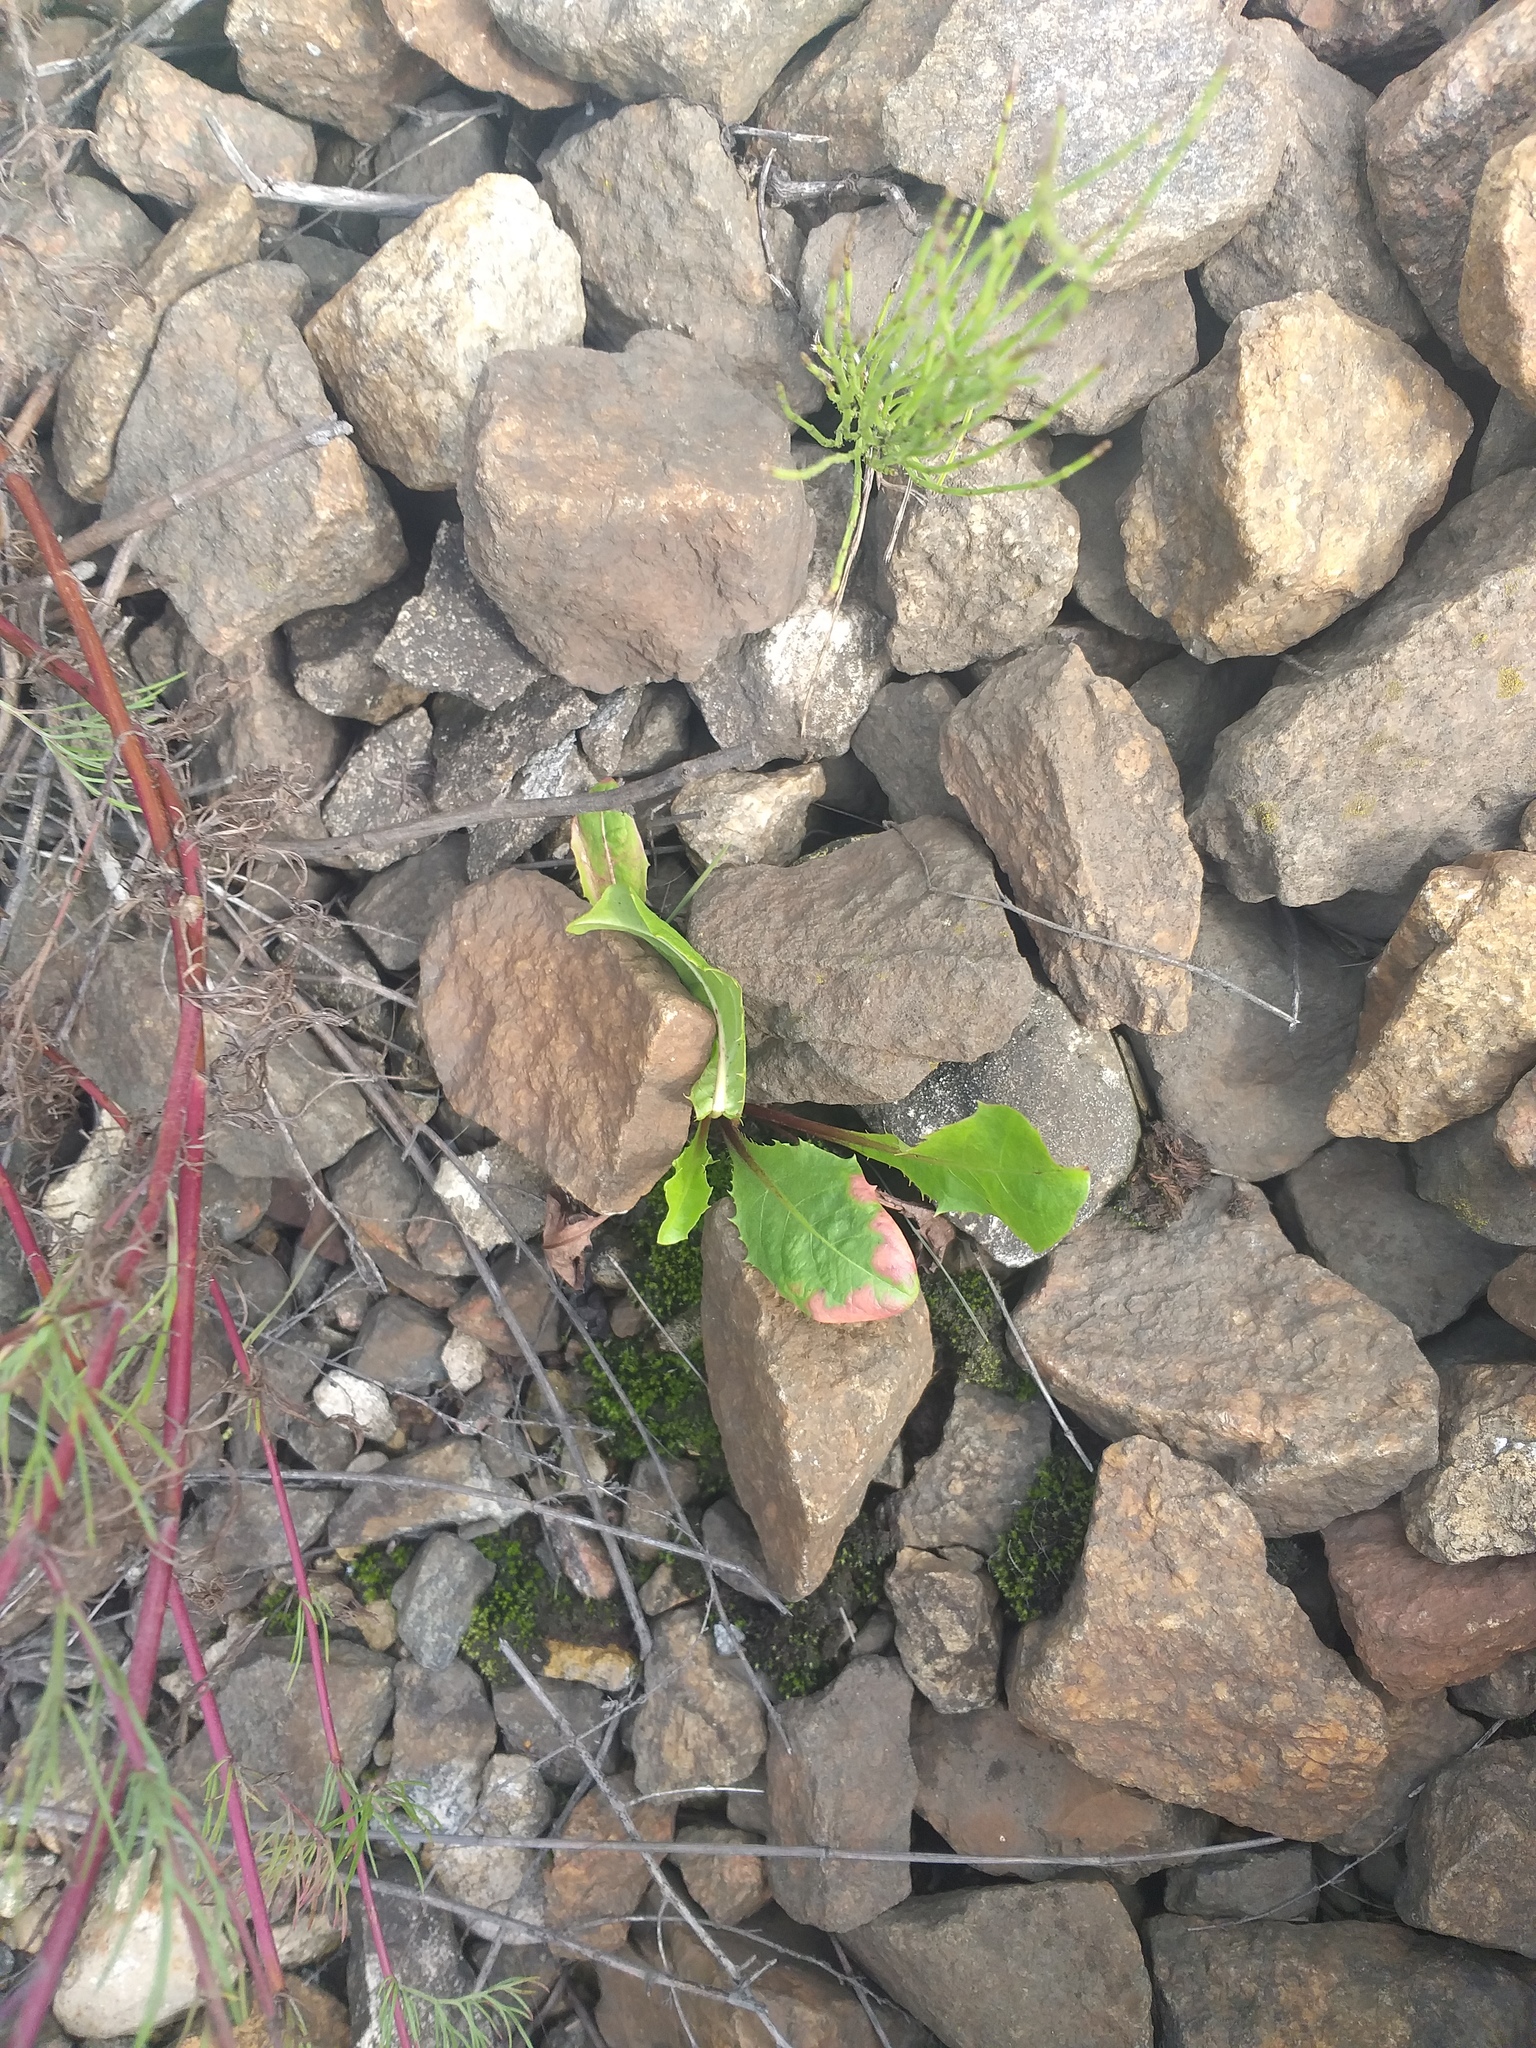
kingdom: Plantae
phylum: Tracheophyta
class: Magnoliopsida
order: Asterales
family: Asteraceae
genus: Taraxacum
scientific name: Taraxacum officinale
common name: Common dandelion
